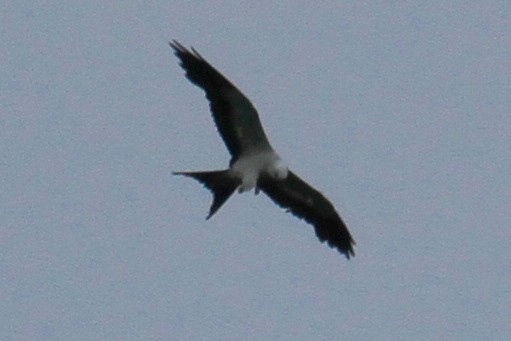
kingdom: Animalia
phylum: Chordata
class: Aves
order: Accipitriformes
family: Accipitridae
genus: Elanoides
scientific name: Elanoides forficatus
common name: Swallow-tailed kite
